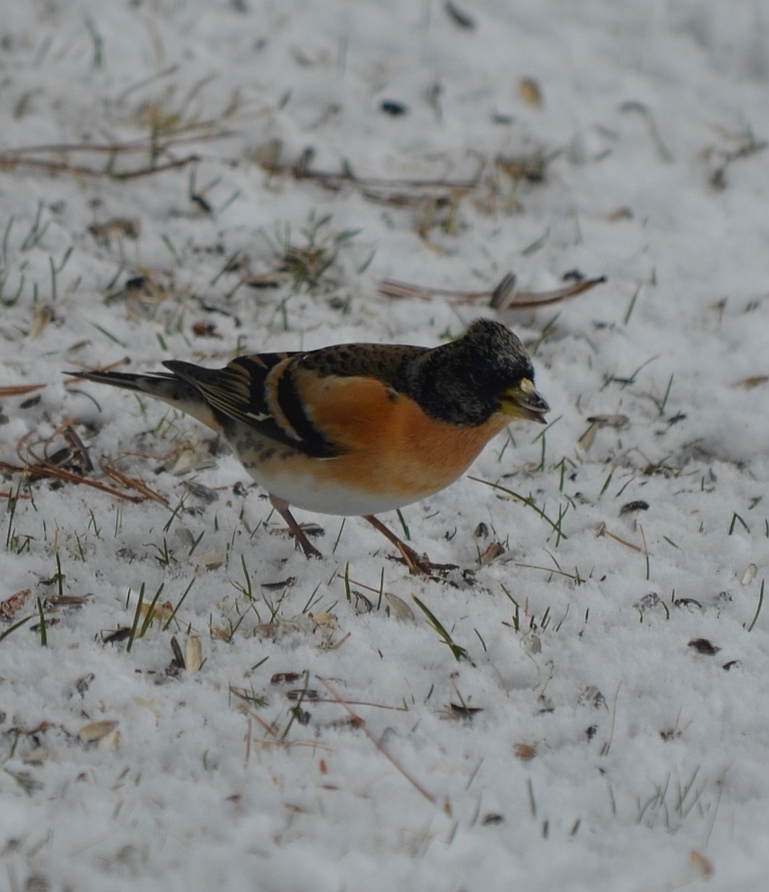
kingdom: Animalia
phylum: Chordata
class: Aves
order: Passeriformes
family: Fringillidae
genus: Fringilla
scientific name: Fringilla montifringilla
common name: Brambling
